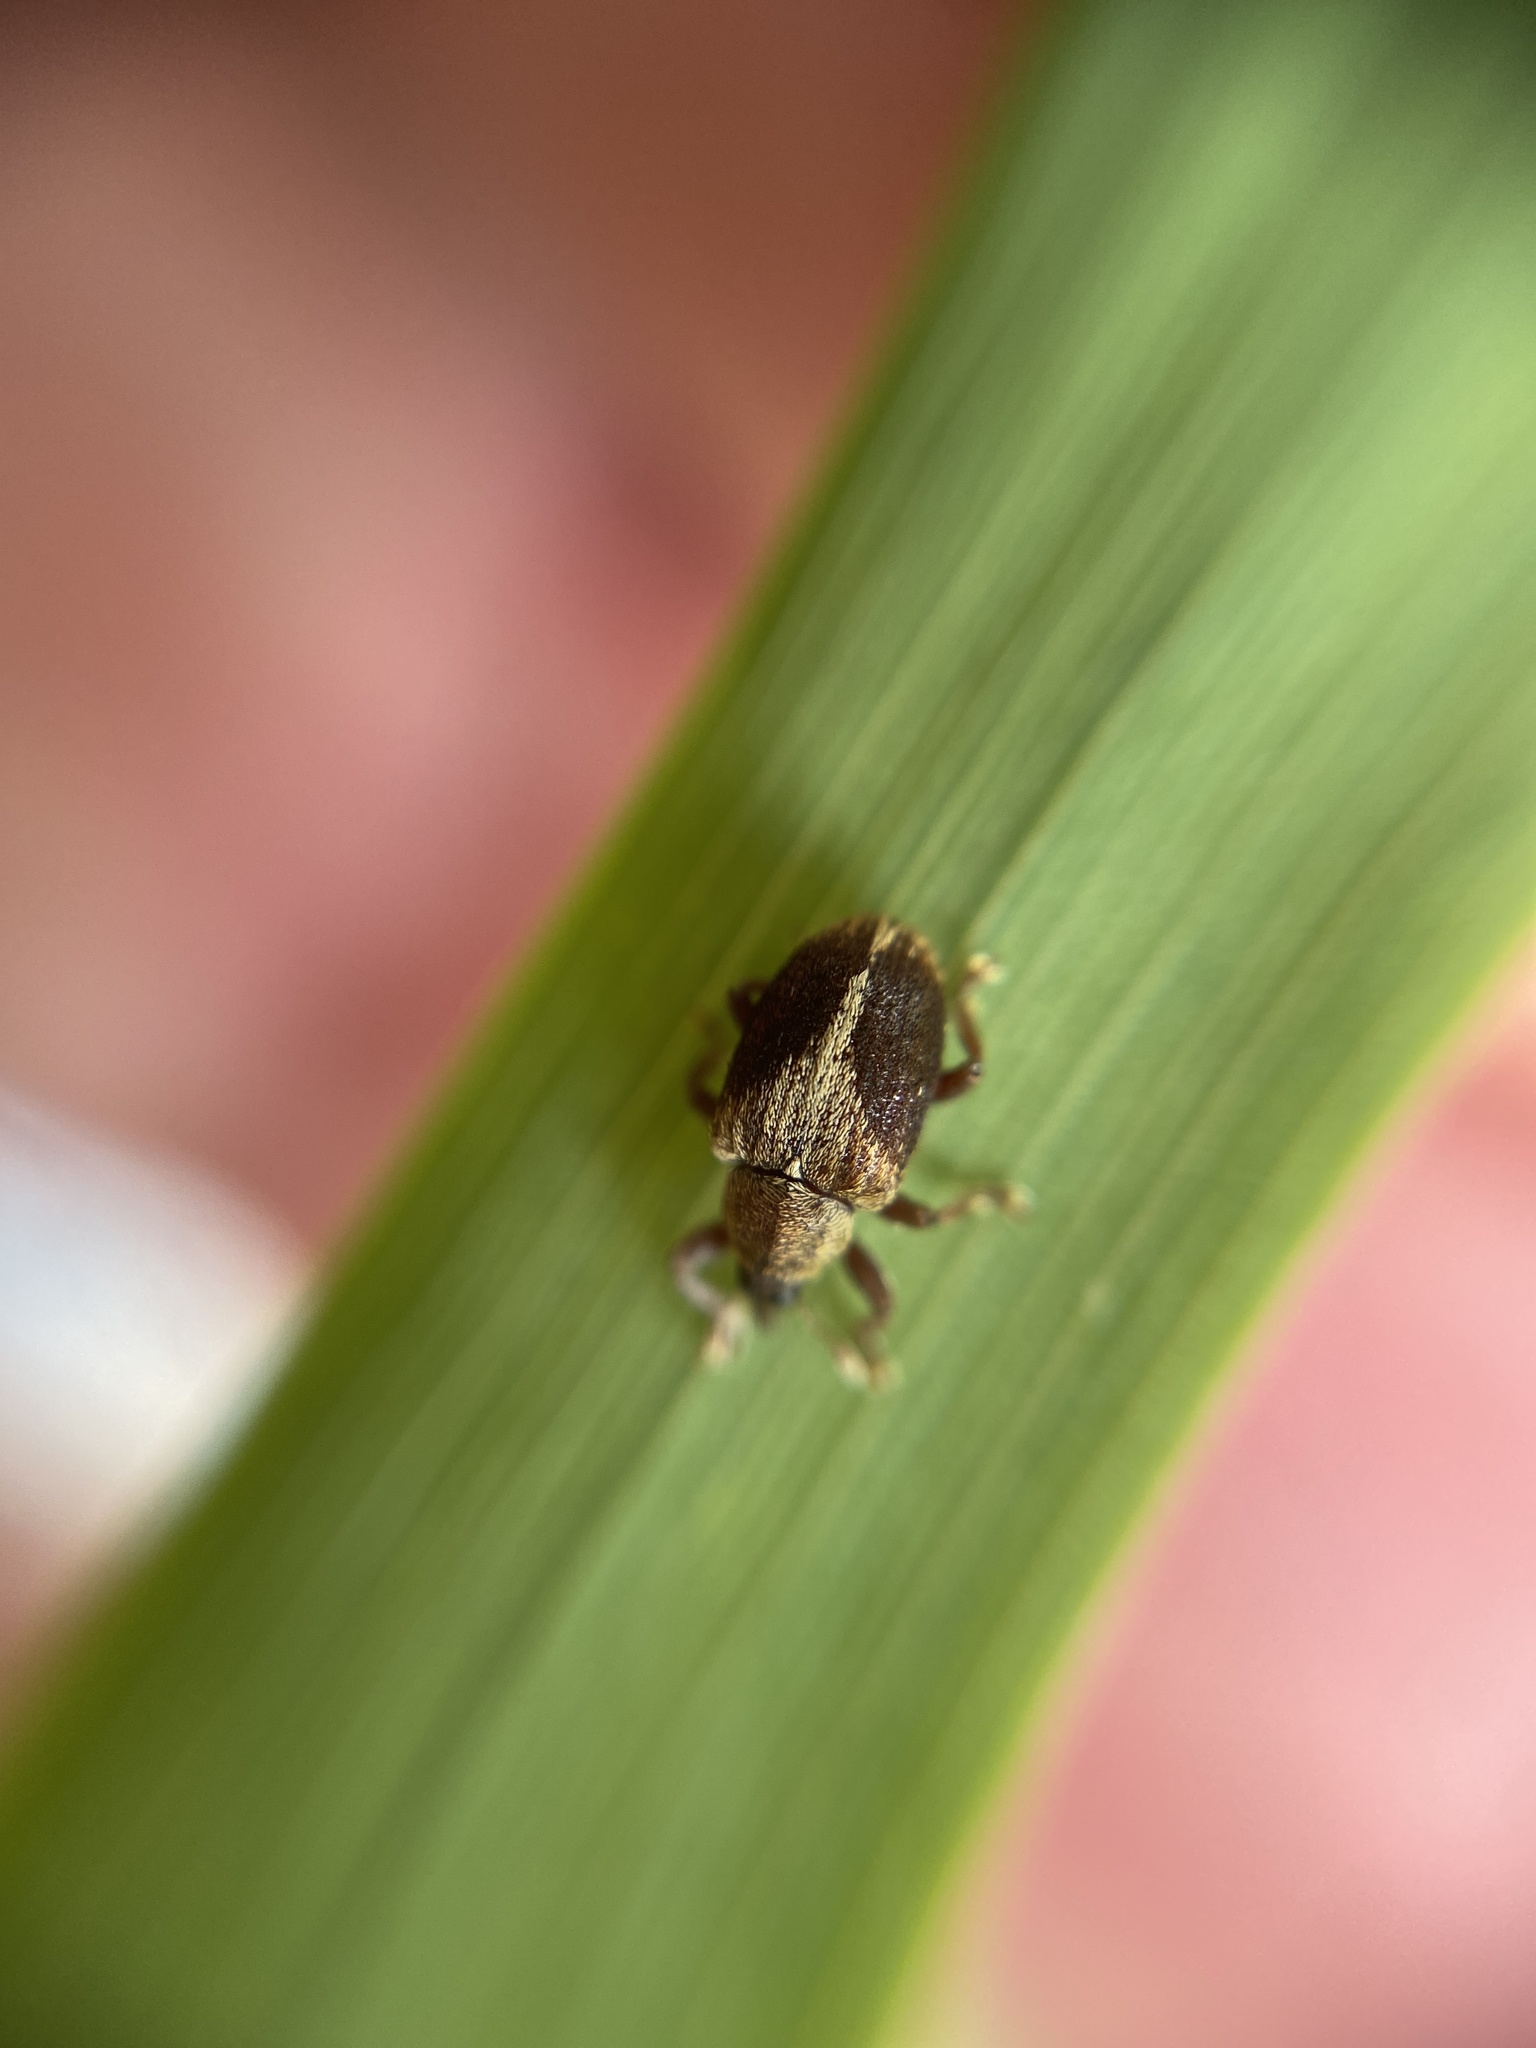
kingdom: Animalia
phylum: Arthropoda
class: Insecta
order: Coleoptera
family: Curculionidae
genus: Lignyodes
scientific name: Lignyodes enucleator
